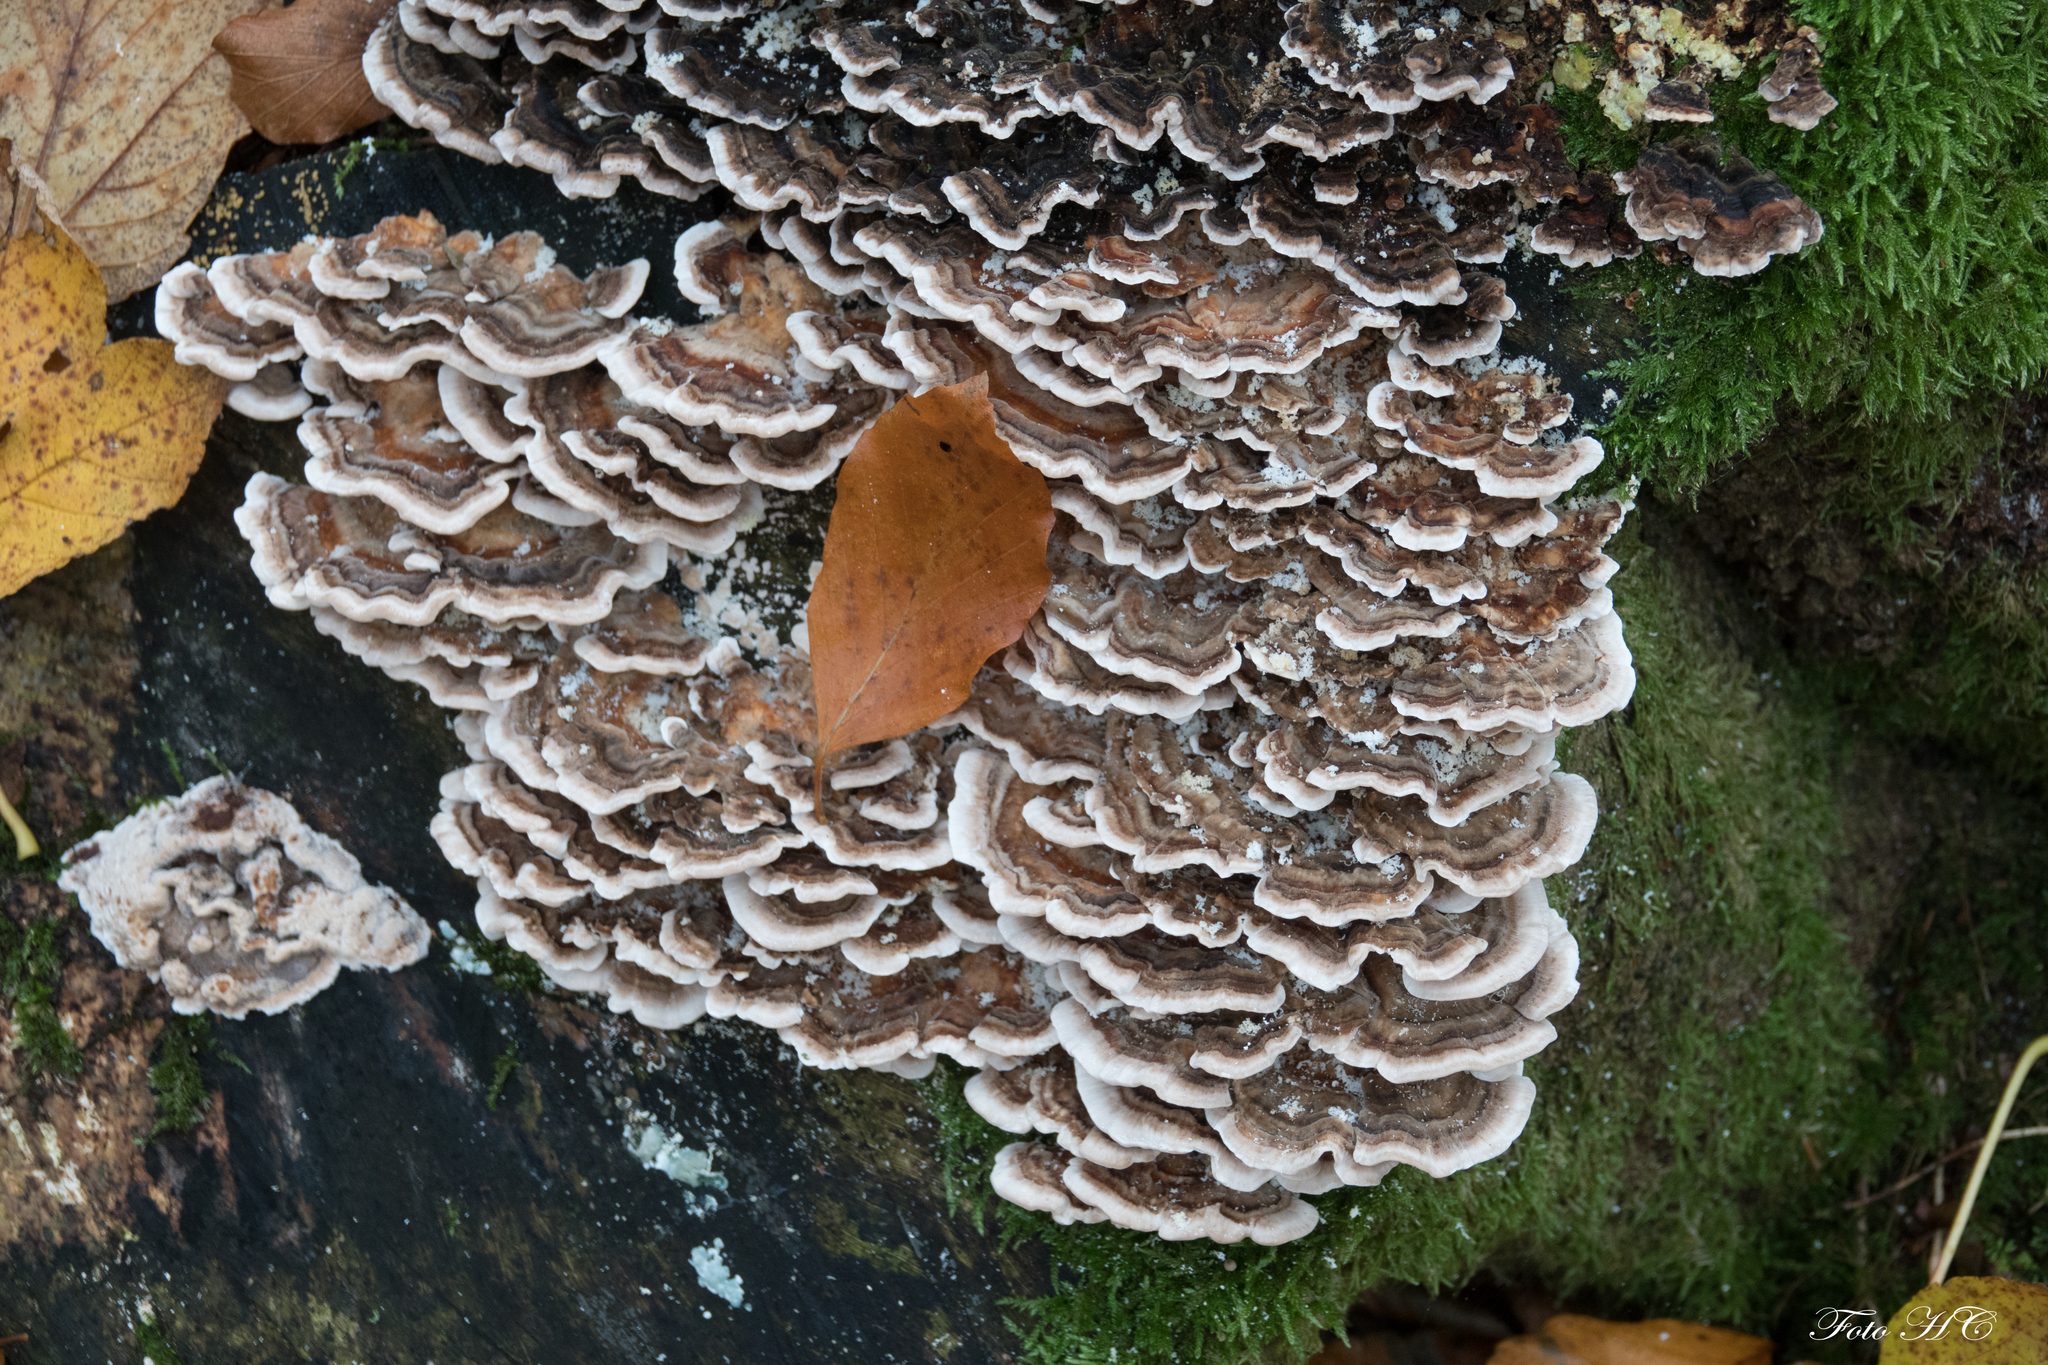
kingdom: Fungi
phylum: Basidiomycota
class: Agaricomycetes
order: Polyporales
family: Phanerochaetaceae
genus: Bjerkandera
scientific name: Bjerkandera adusta
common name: Smoky bracket
